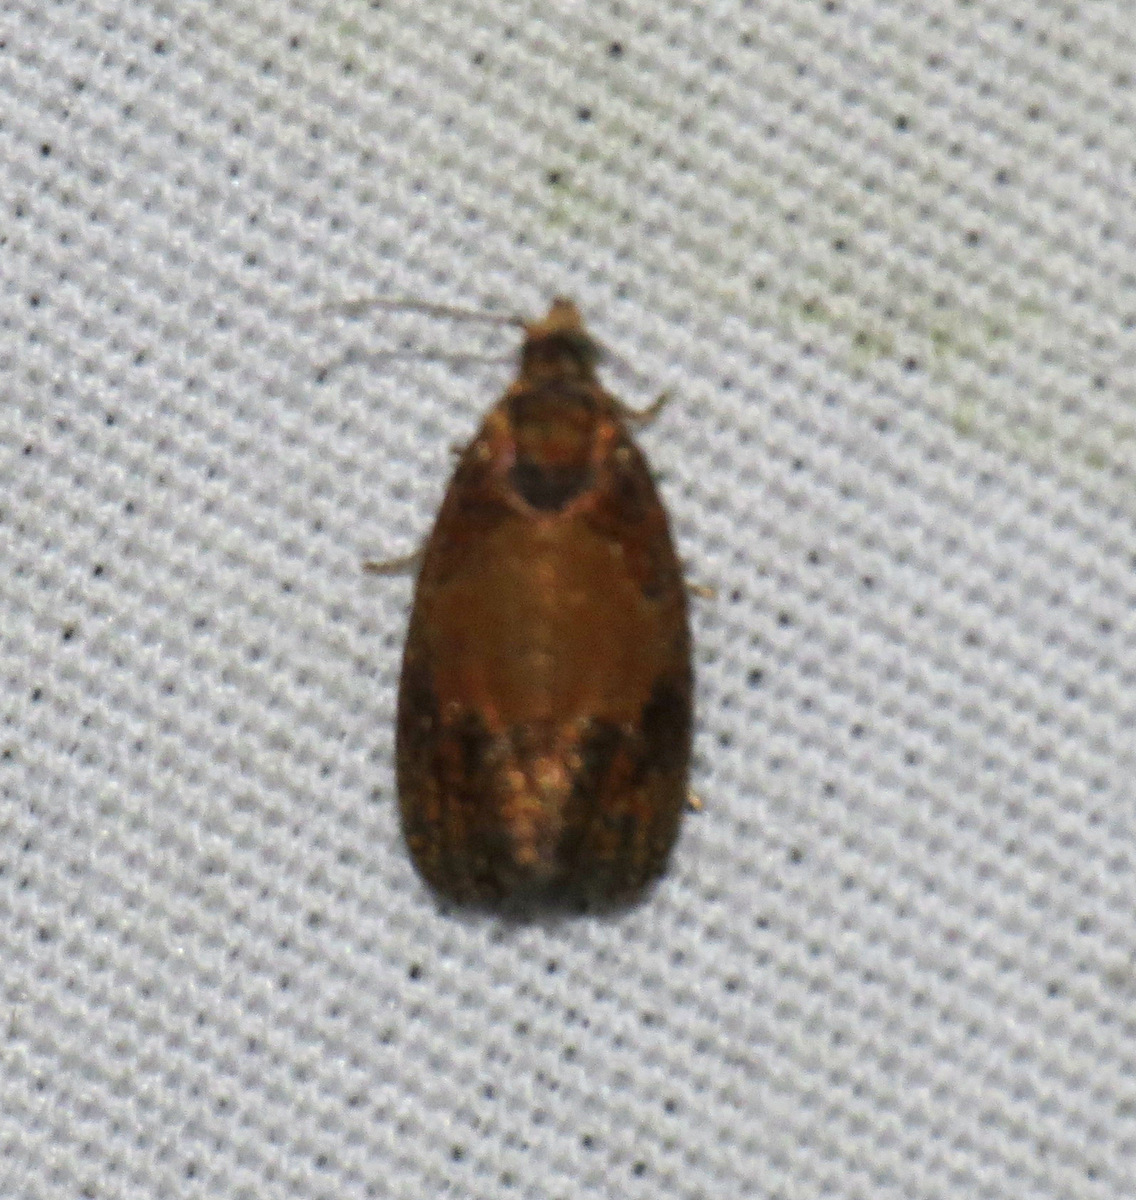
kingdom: Animalia
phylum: Arthropoda
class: Insecta
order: Lepidoptera
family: Tortricidae
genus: Olethreutes
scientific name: Olethreutes osmundana
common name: Fern olethreutes moth
